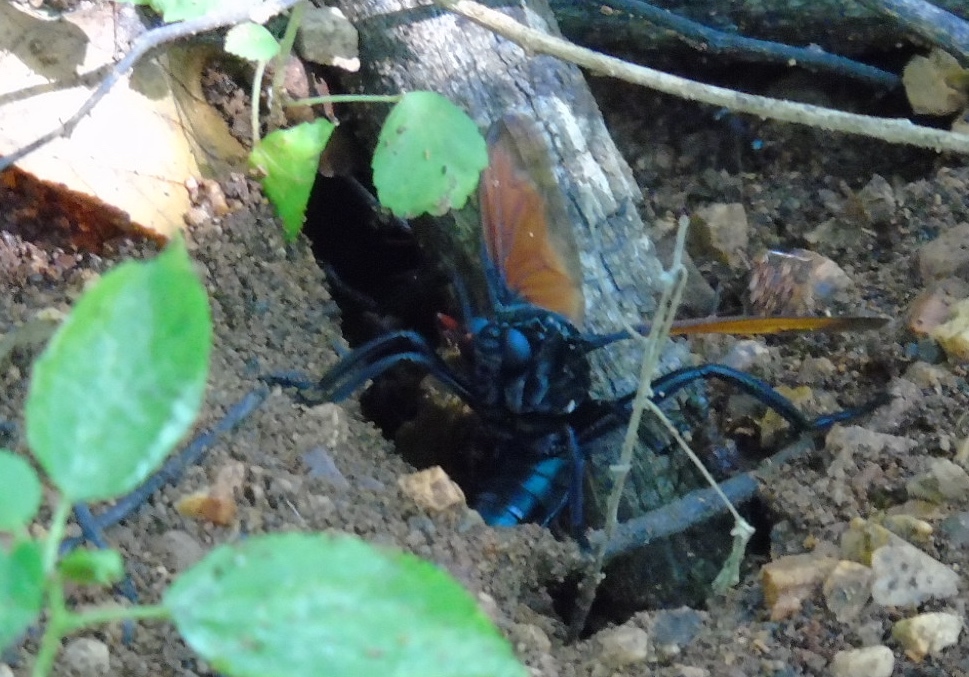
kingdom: Animalia
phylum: Arthropoda
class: Insecta
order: Diptera
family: Mydidae
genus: Mydas
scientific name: Mydas rubidapex
